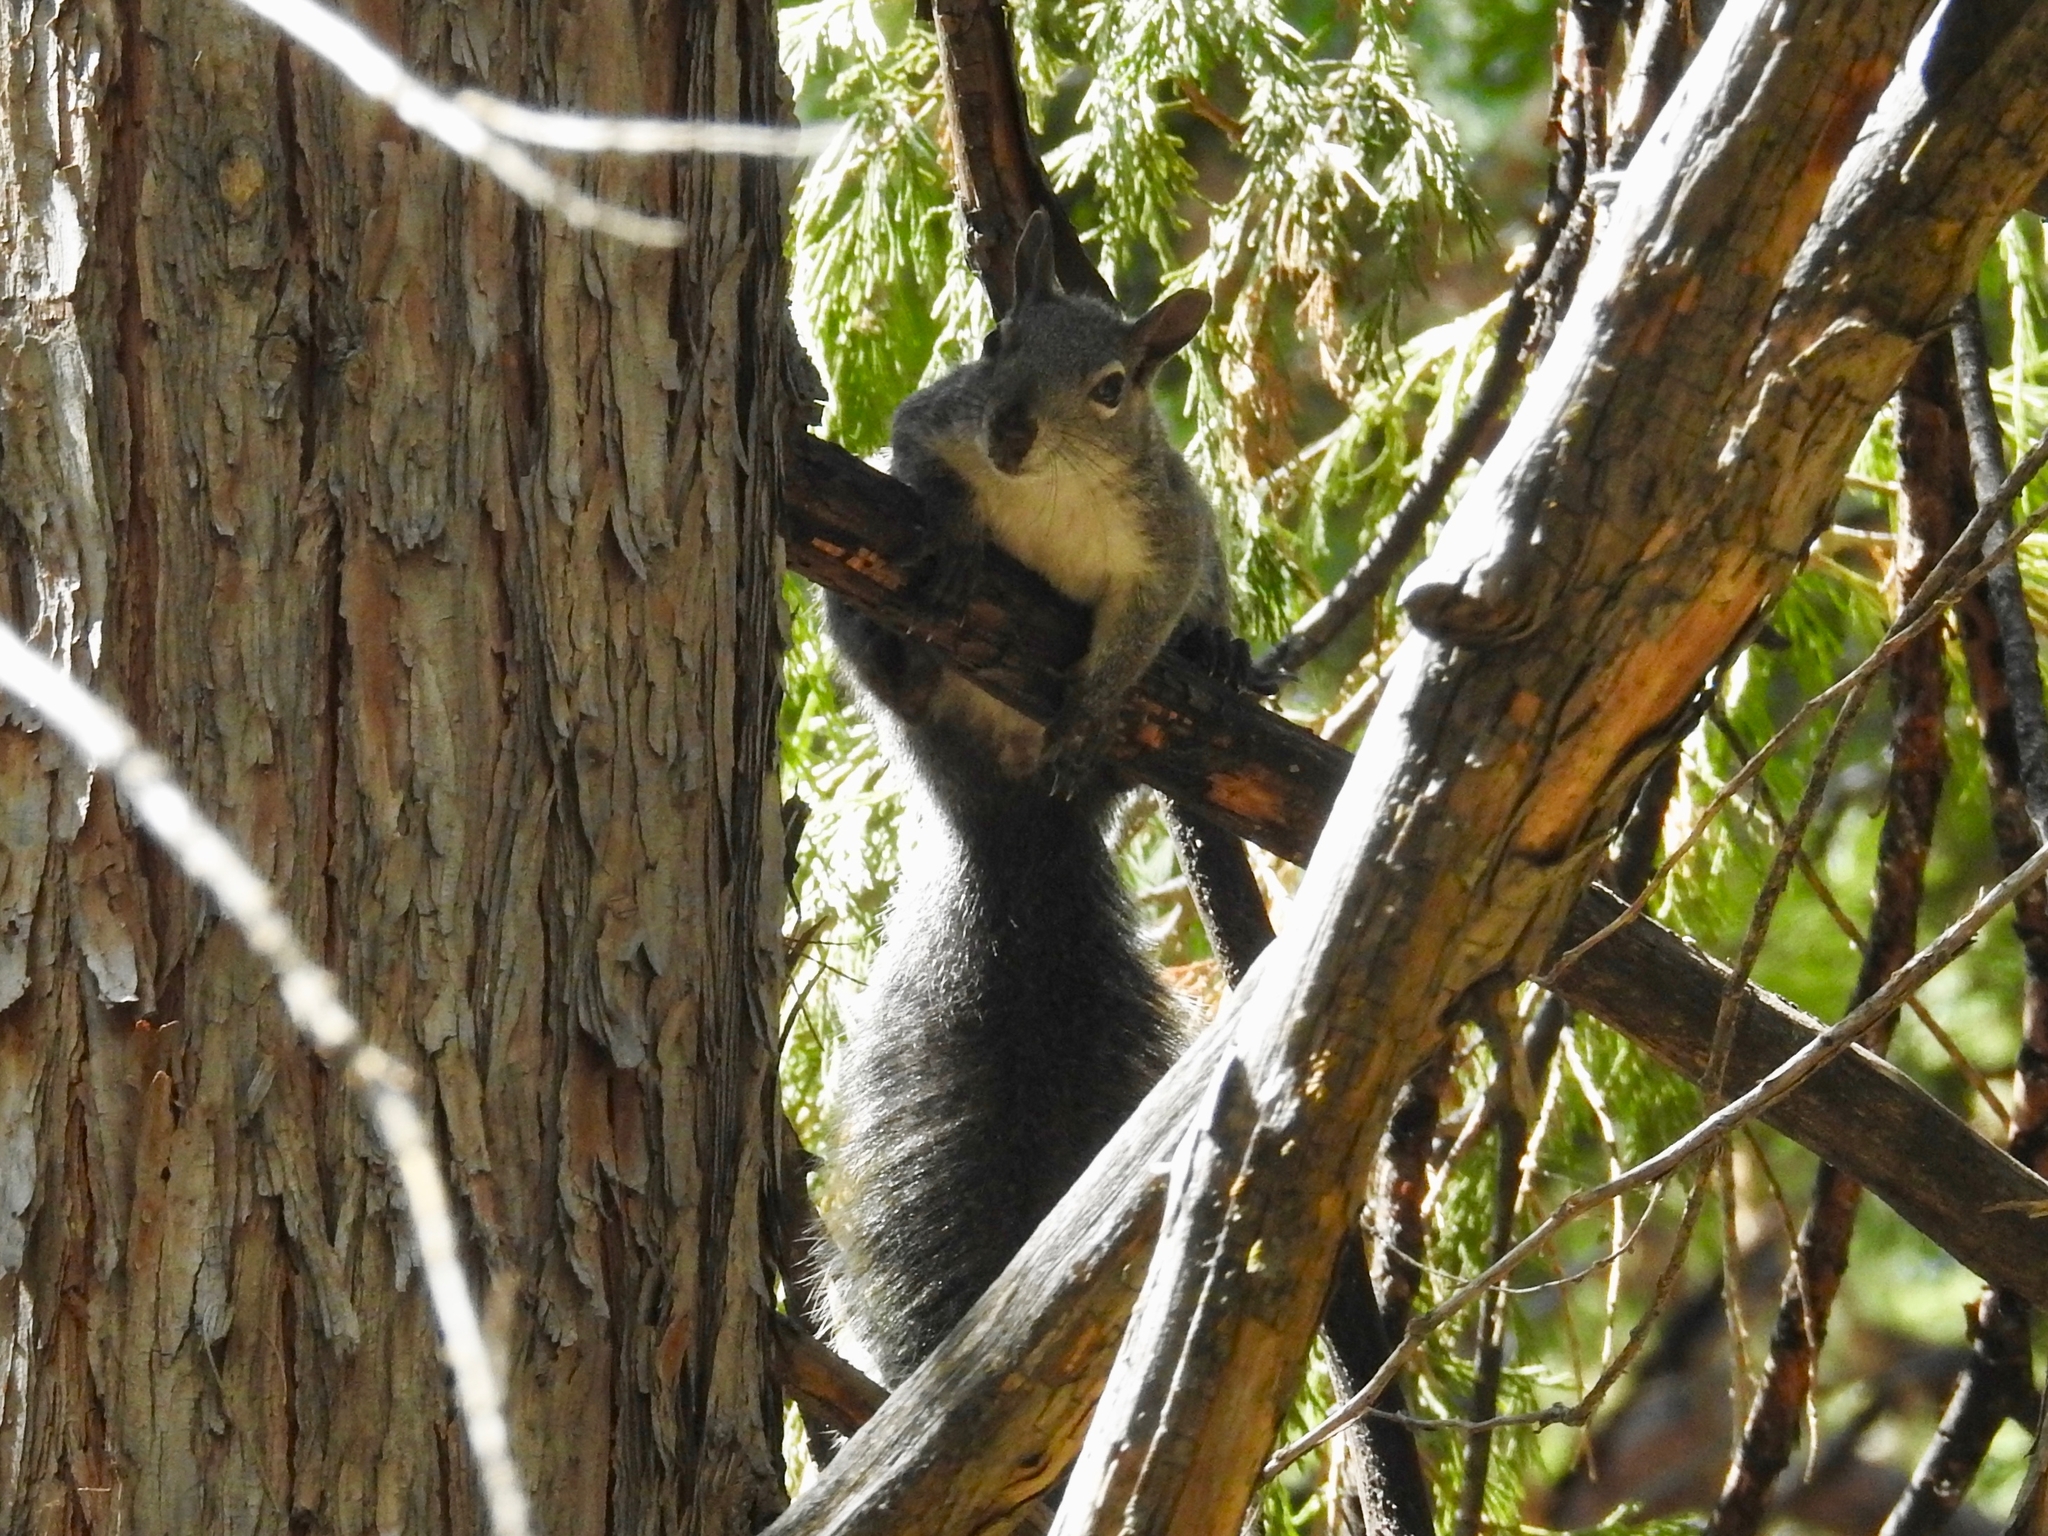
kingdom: Animalia
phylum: Chordata
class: Mammalia
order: Rodentia
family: Sciuridae
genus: Sciurus
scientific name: Sciurus griseus
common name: Western gray squirrel
